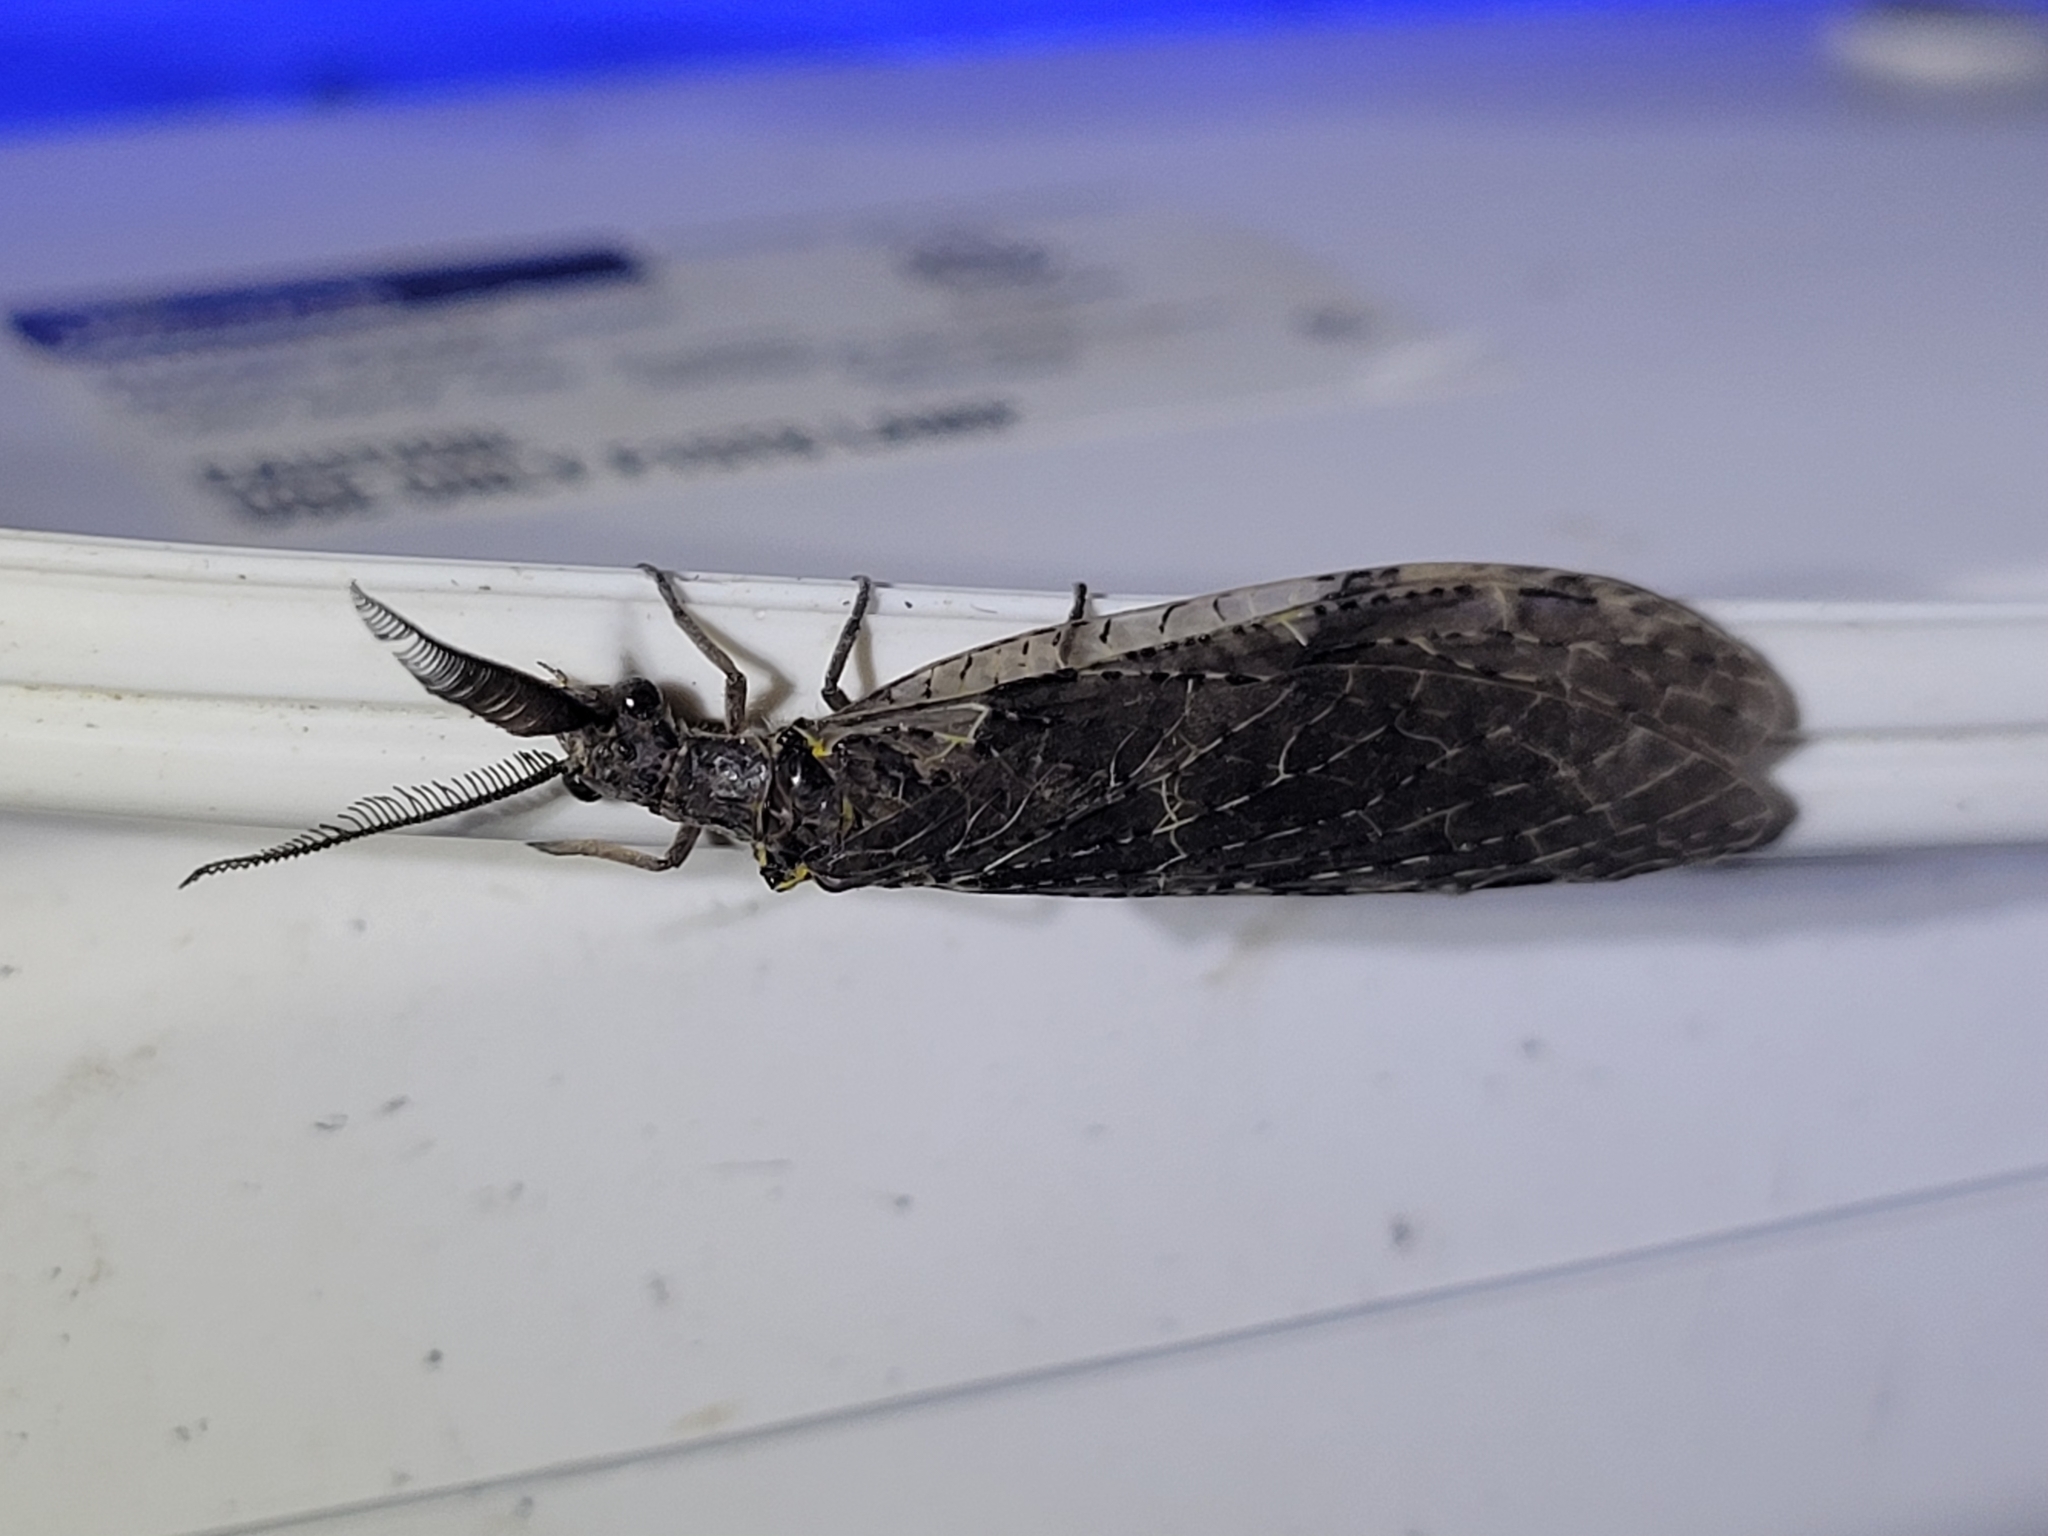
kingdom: Animalia
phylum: Arthropoda
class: Insecta
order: Megaloptera
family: Corydalidae
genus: Chauliodes
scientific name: Chauliodes rastricornis
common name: Spring fishfly
